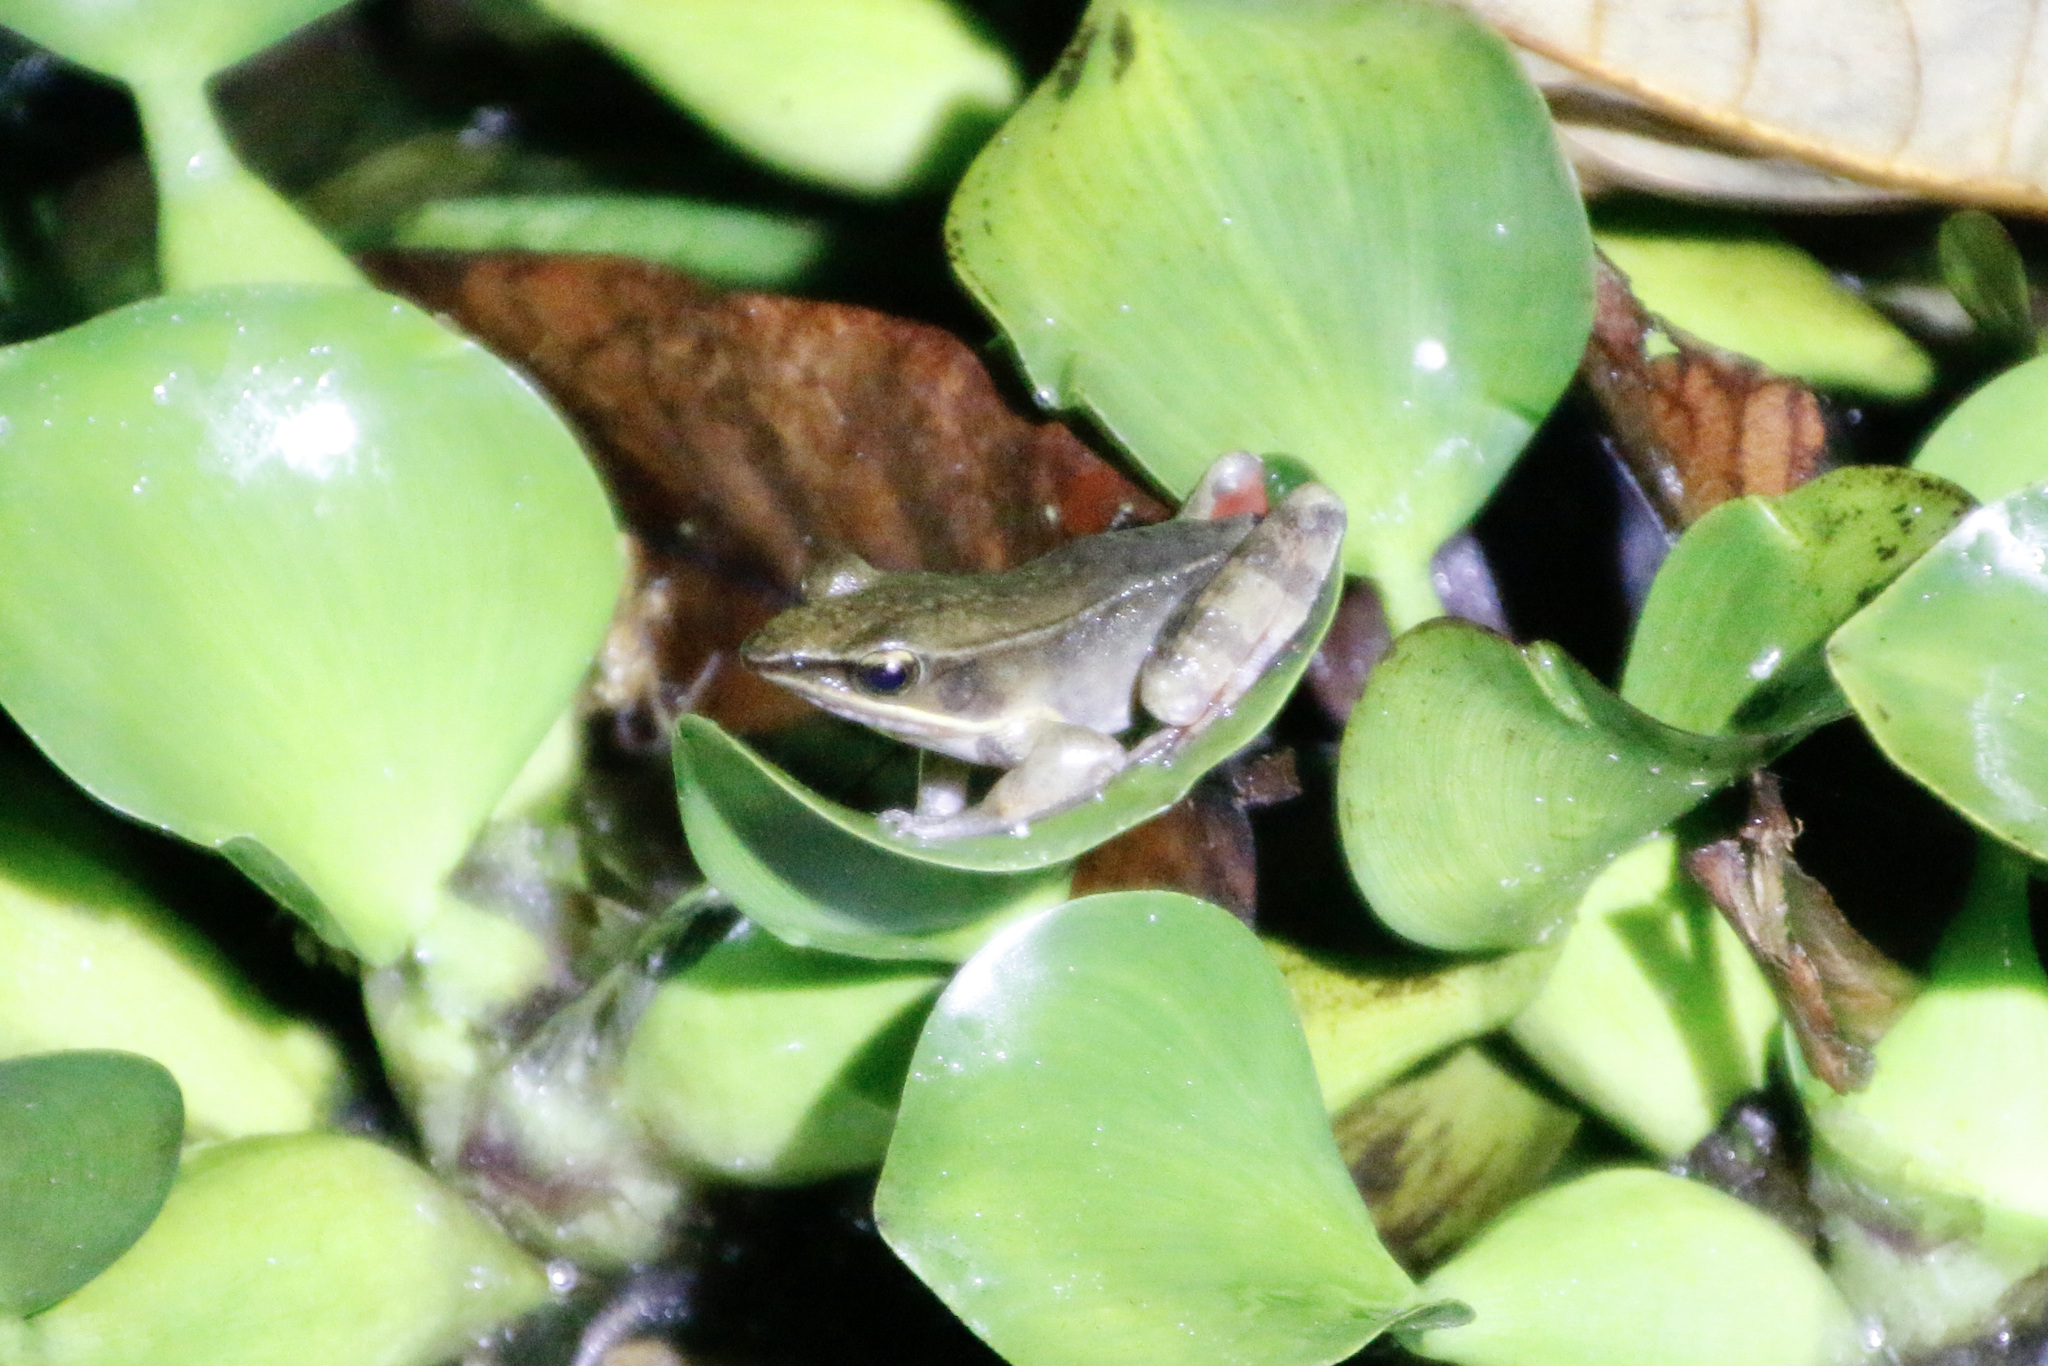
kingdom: Animalia
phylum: Chordata
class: Amphibia
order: Anura
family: Ranidae
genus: Lithobates
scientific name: Lithobates warszewitschii
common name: Warszewitsch's frog
